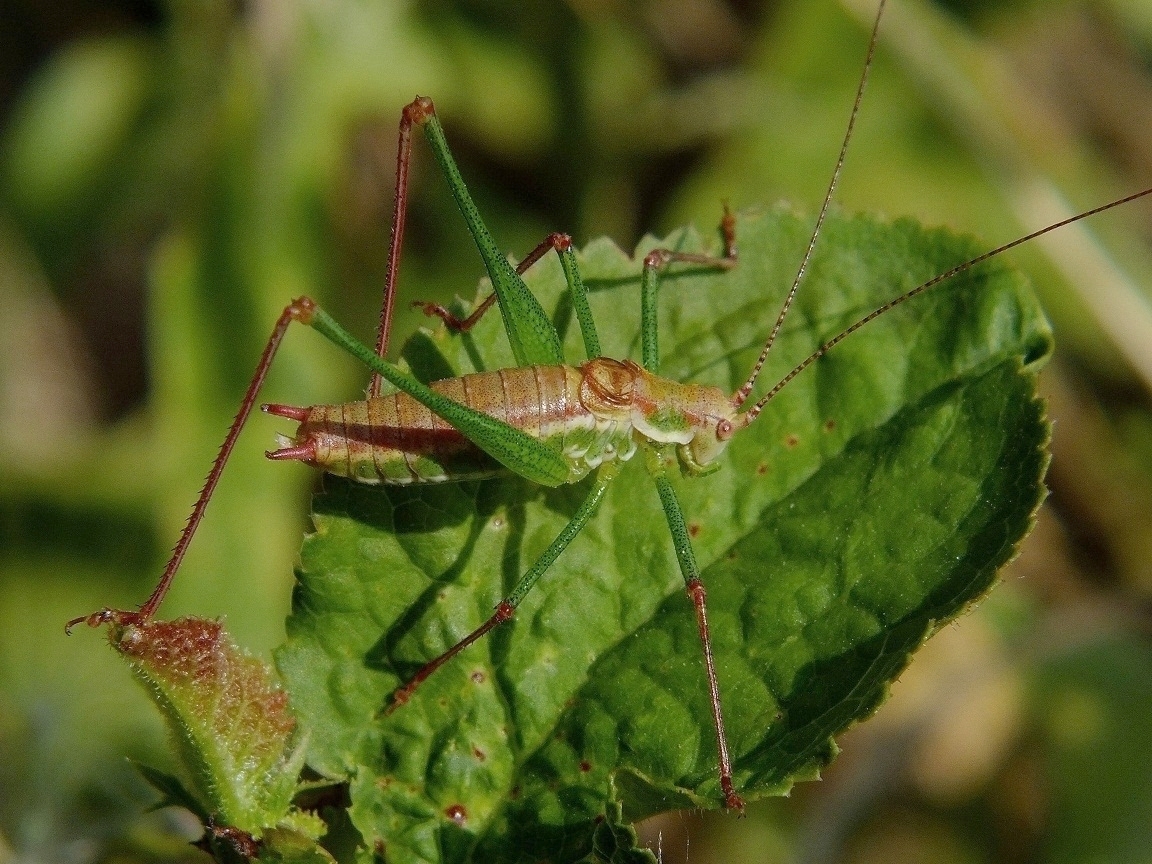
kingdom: Animalia
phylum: Arthropoda
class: Insecta
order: Orthoptera
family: Tettigoniidae
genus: Leptophyes
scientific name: Leptophyes albovittata
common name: Striped bush-cricket
